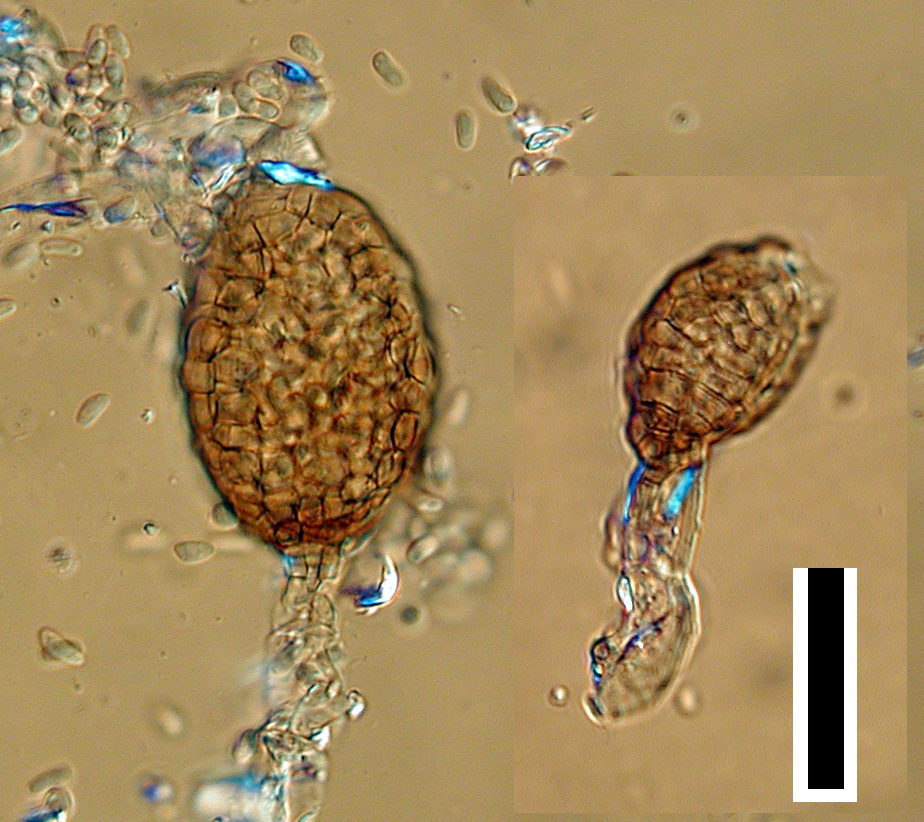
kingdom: Fungi
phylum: Ascomycota
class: Dothideomycetes
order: Pleosporales
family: Phaeosphaeriaceae
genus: Ampelomyces
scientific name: Ampelomyces quisqualis
